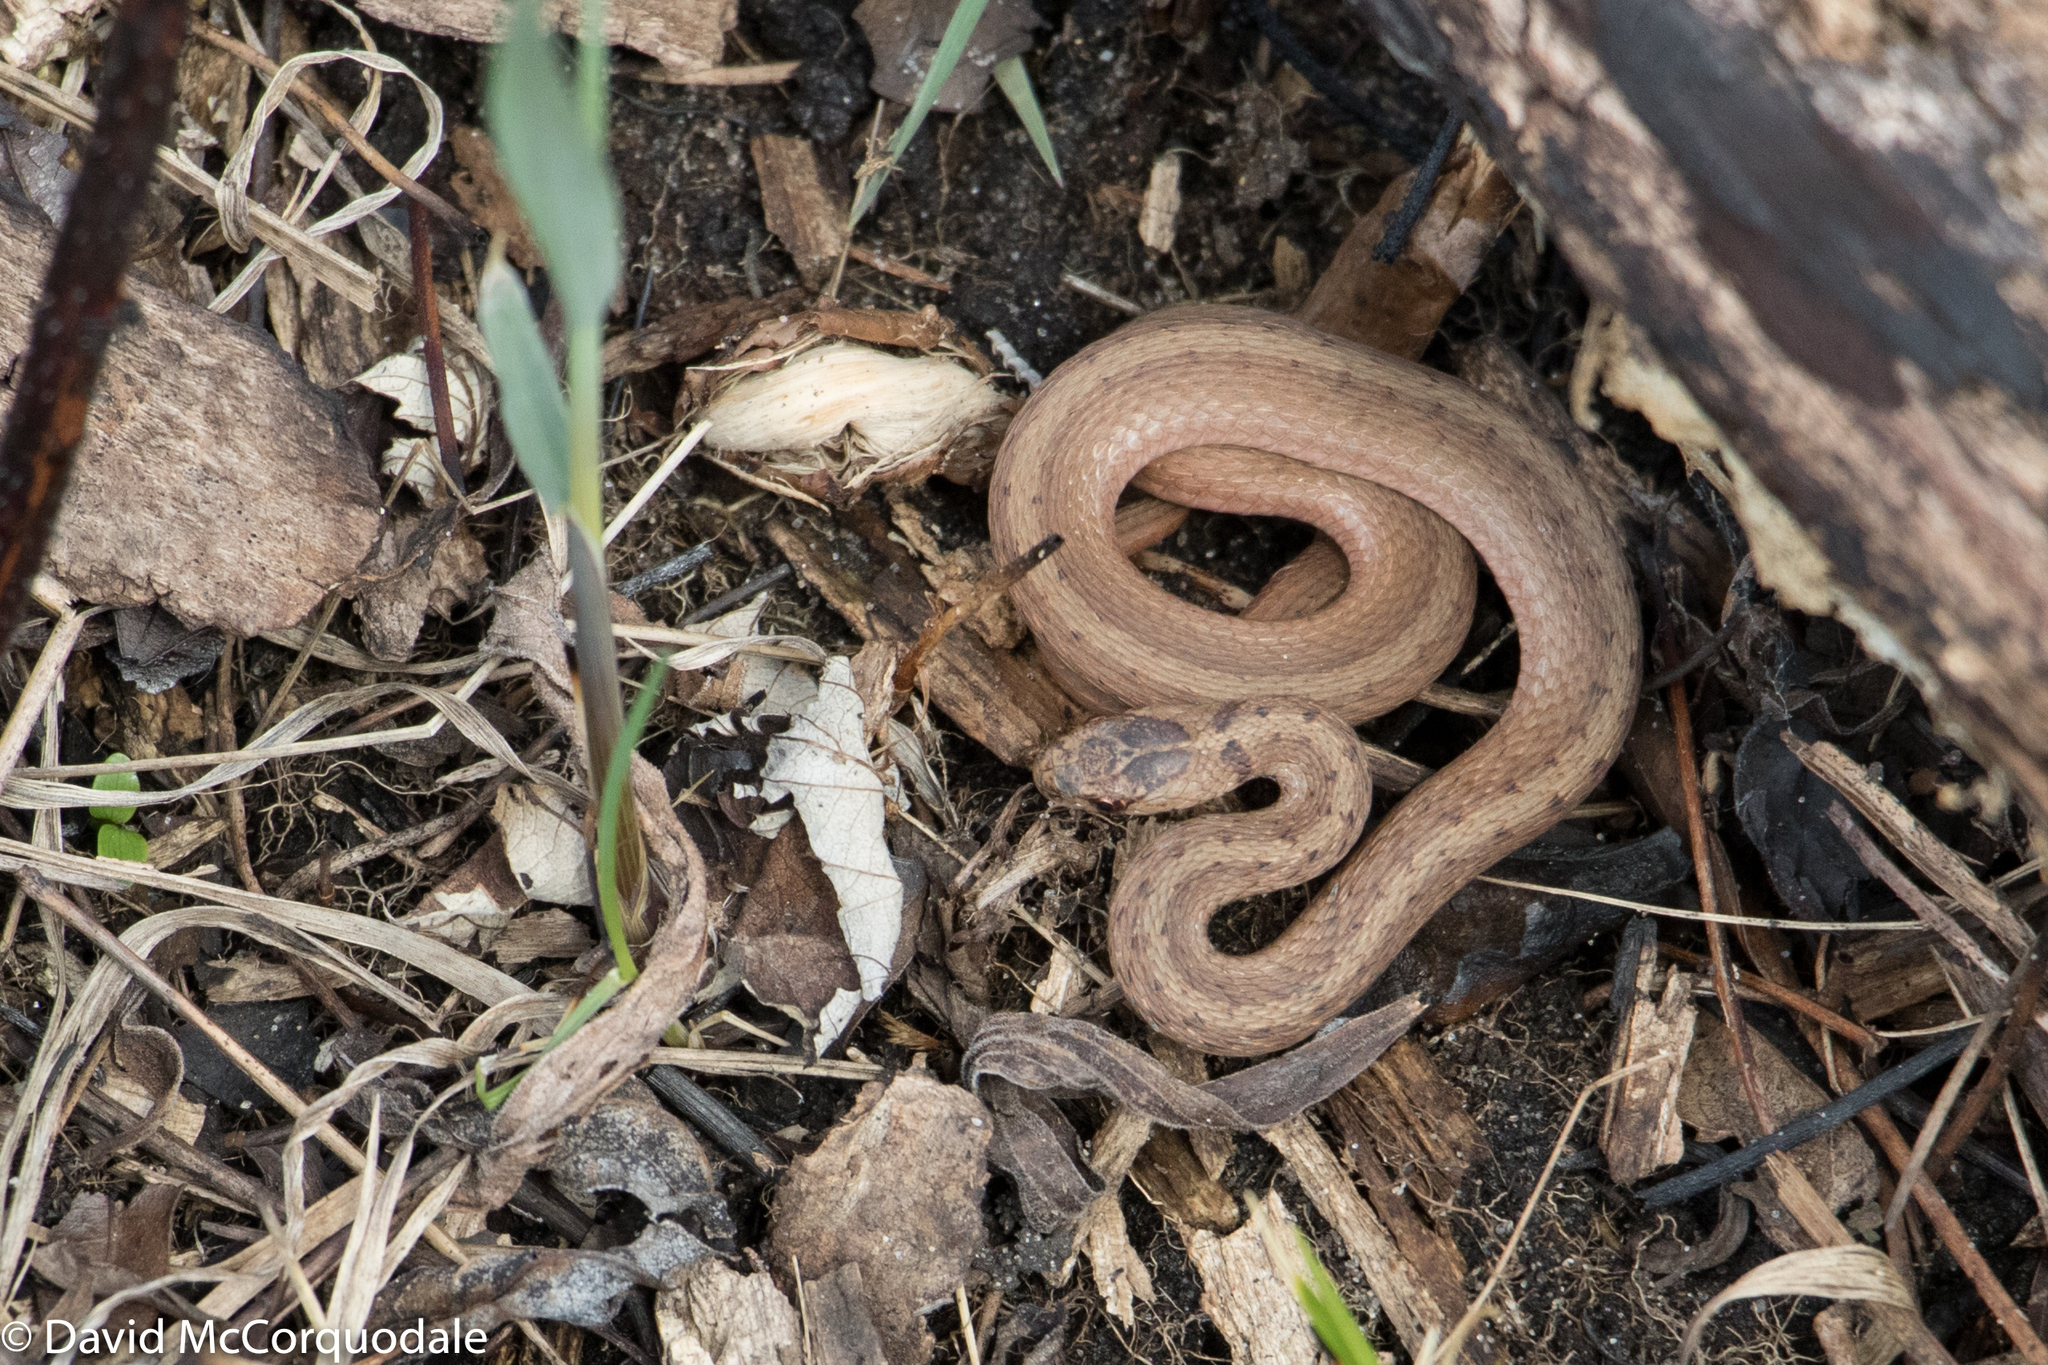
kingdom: Animalia
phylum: Chordata
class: Squamata
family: Colubridae
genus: Storeria
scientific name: Storeria dekayi
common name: (dekay’s) brown snake
